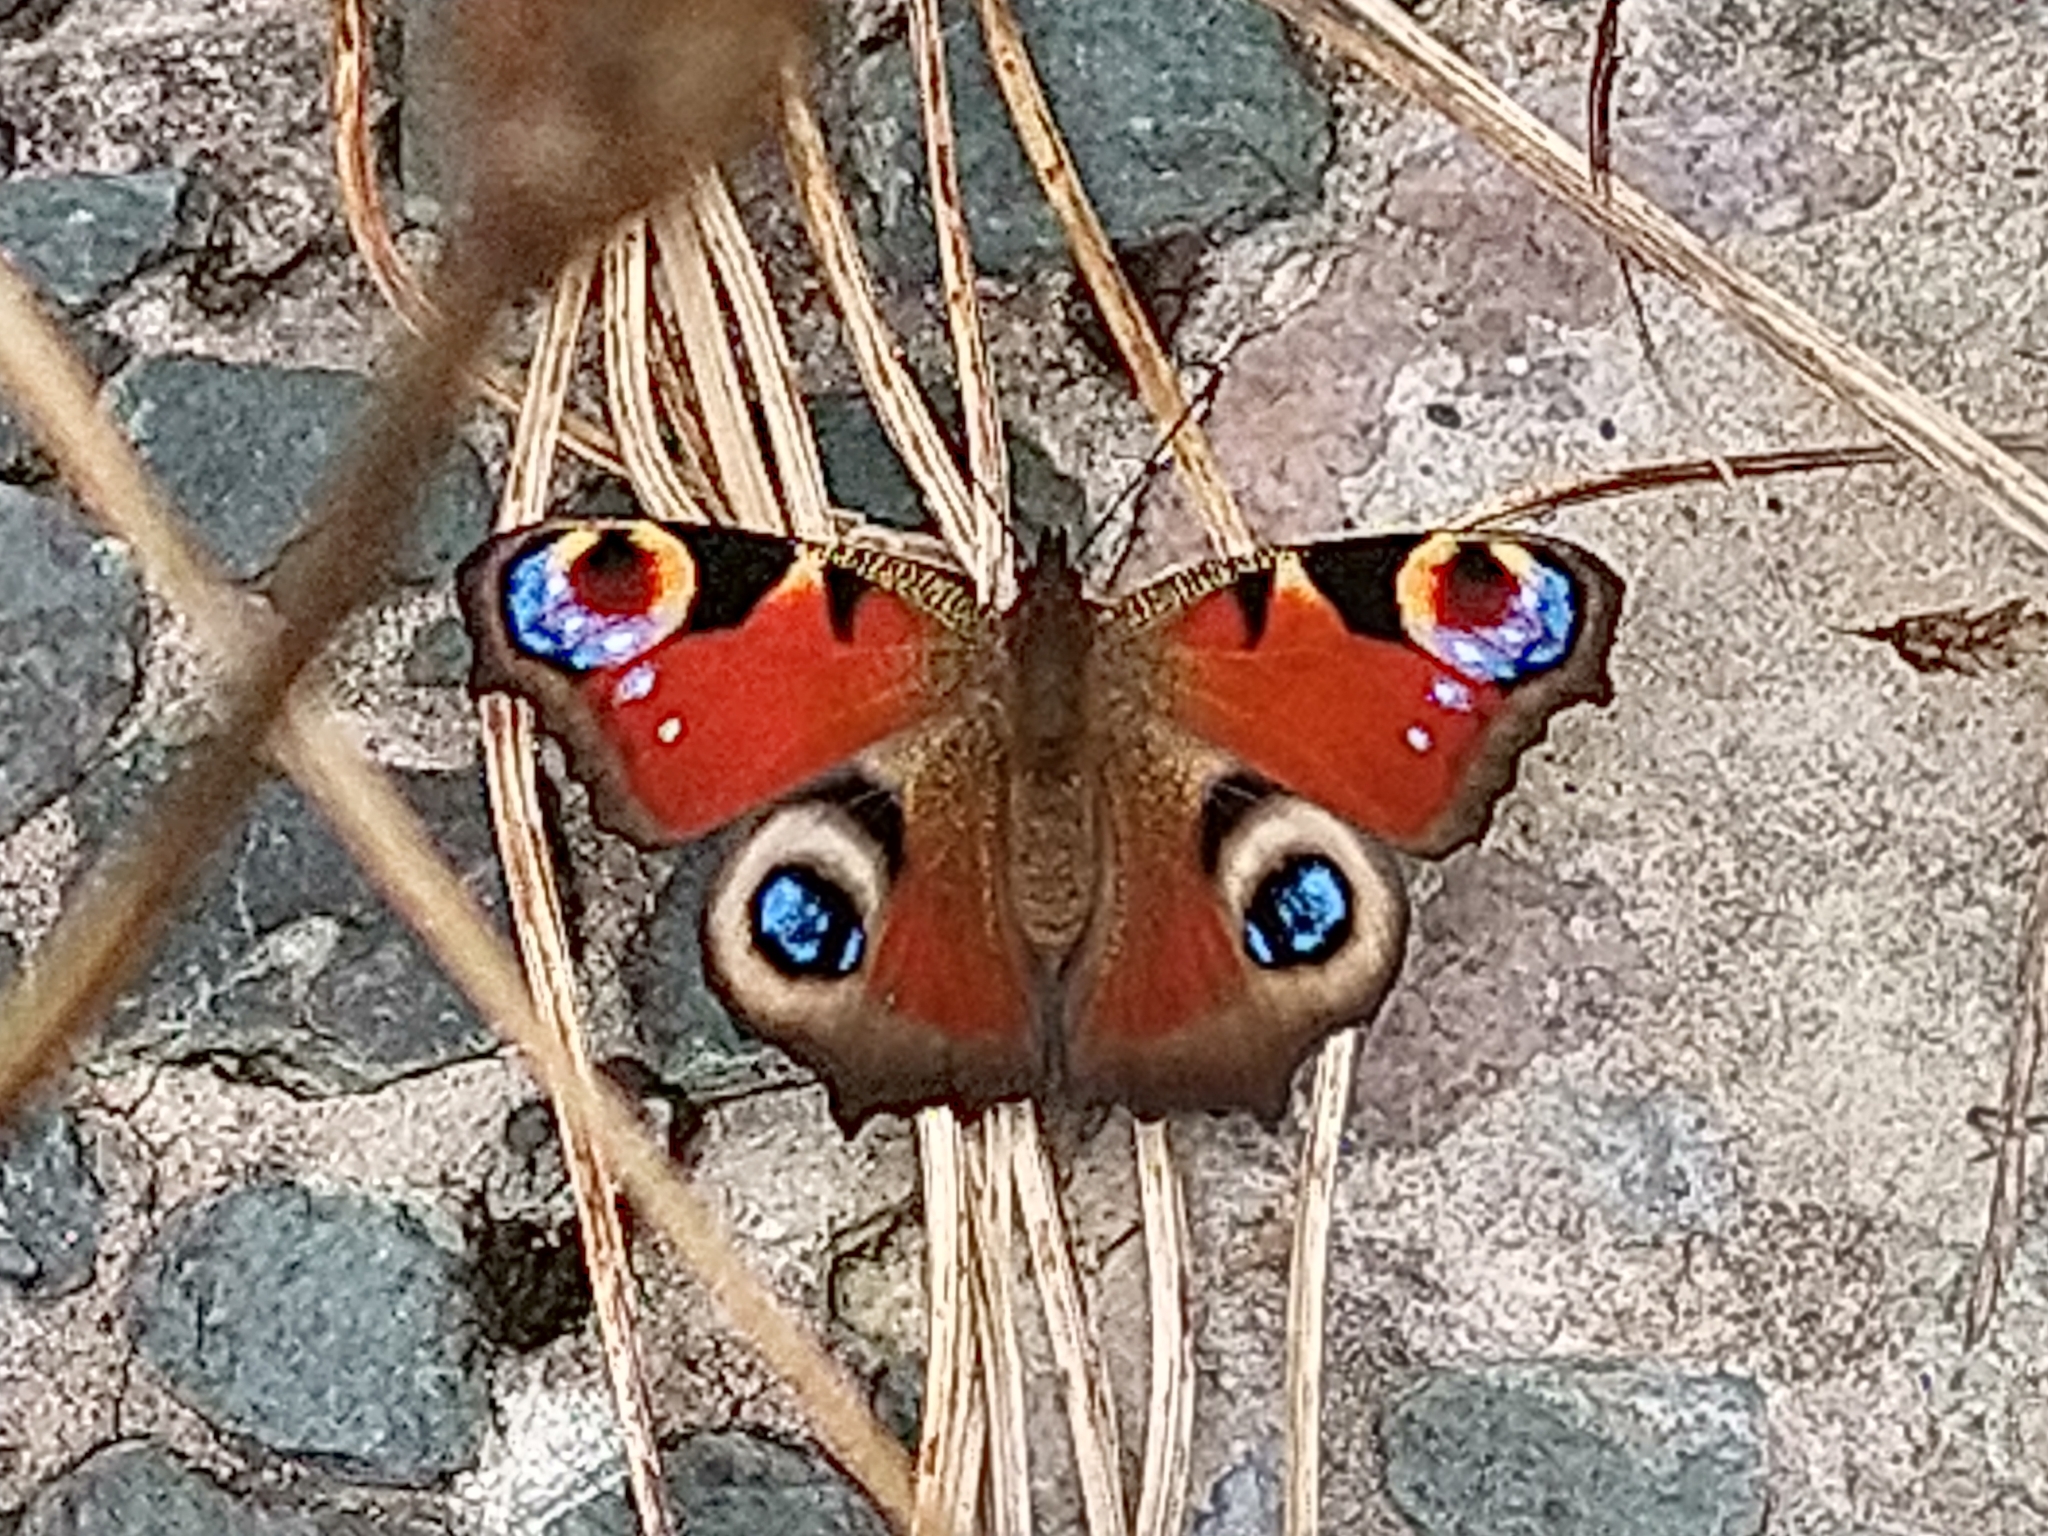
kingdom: Animalia
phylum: Arthropoda
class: Insecta
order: Lepidoptera
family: Nymphalidae
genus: Aglais
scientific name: Aglais io
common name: Peacock
